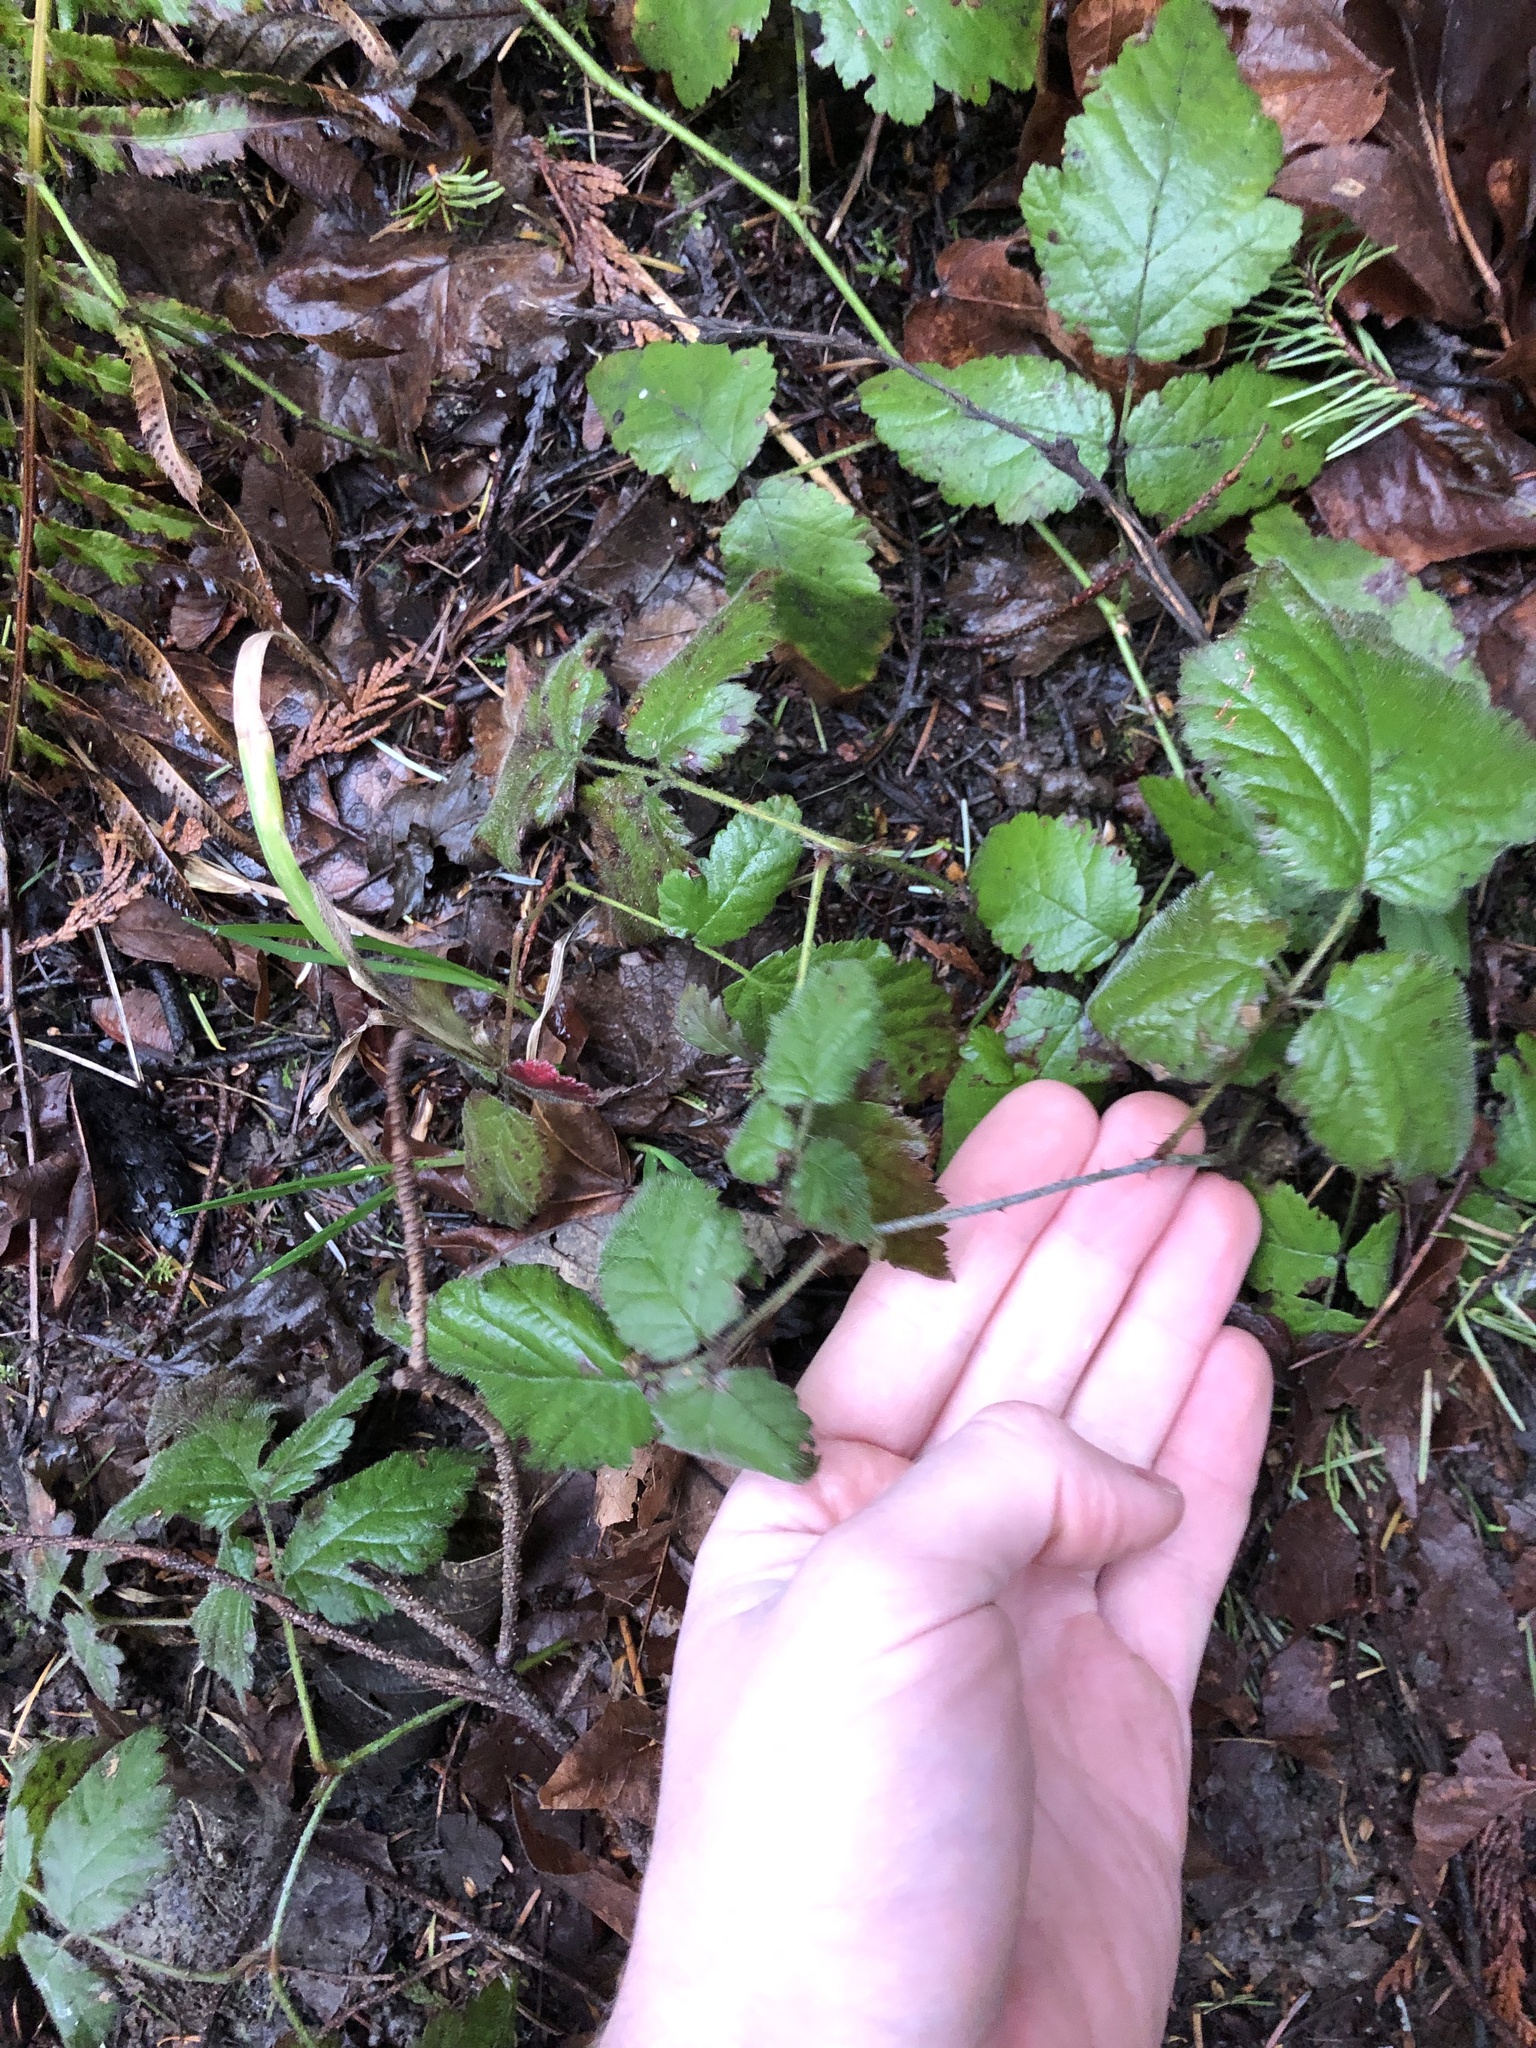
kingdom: Plantae
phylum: Tracheophyta
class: Magnoliopsida
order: Rosales
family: Rosaceae
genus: Rubus
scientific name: Rubus ursinus
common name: Pacific blackberry
